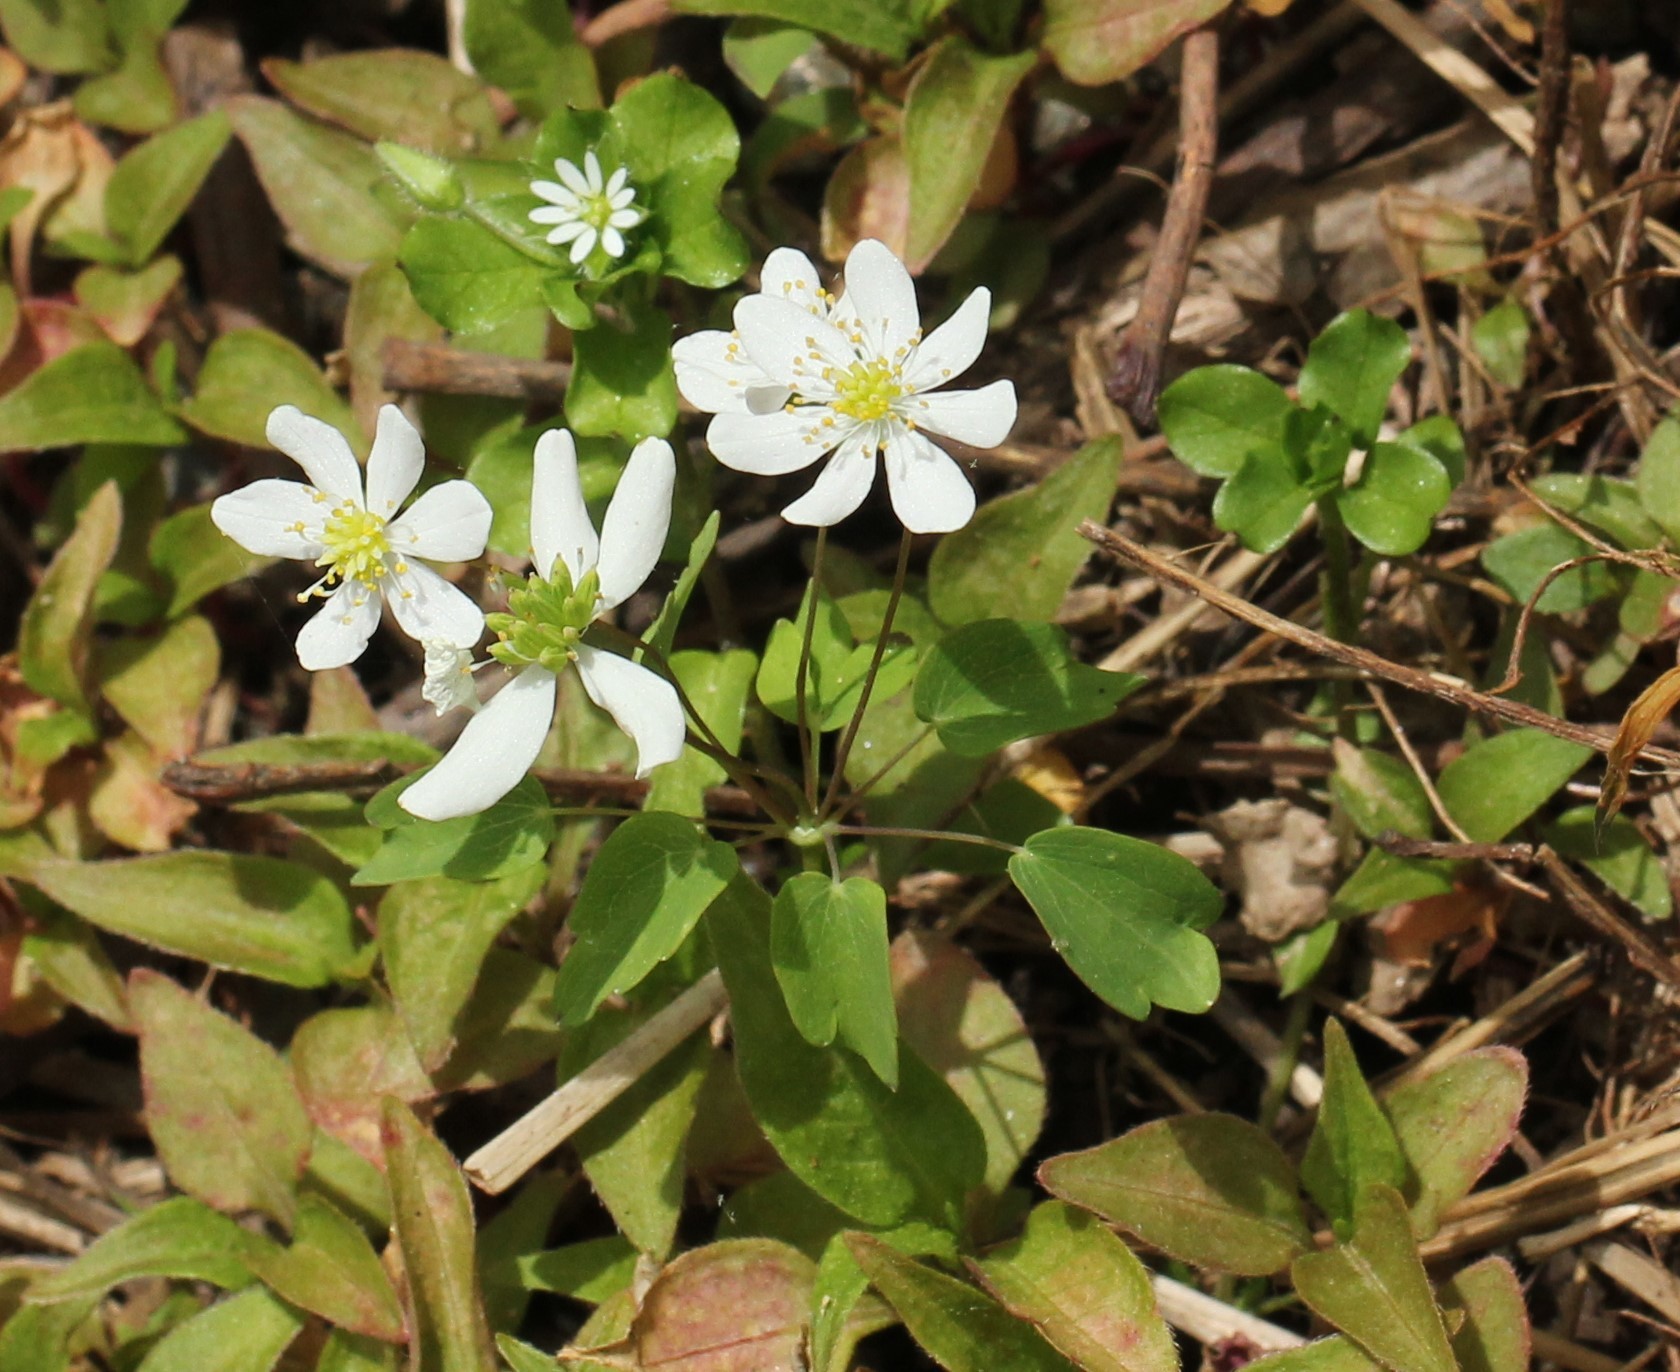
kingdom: Plantae
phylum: Tracheophyta
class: Magnoliopsida
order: Ranunculales
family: Ranunculaceae
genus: Thalictrum
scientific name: Thalictrum thalictroides
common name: Rue-anemone
